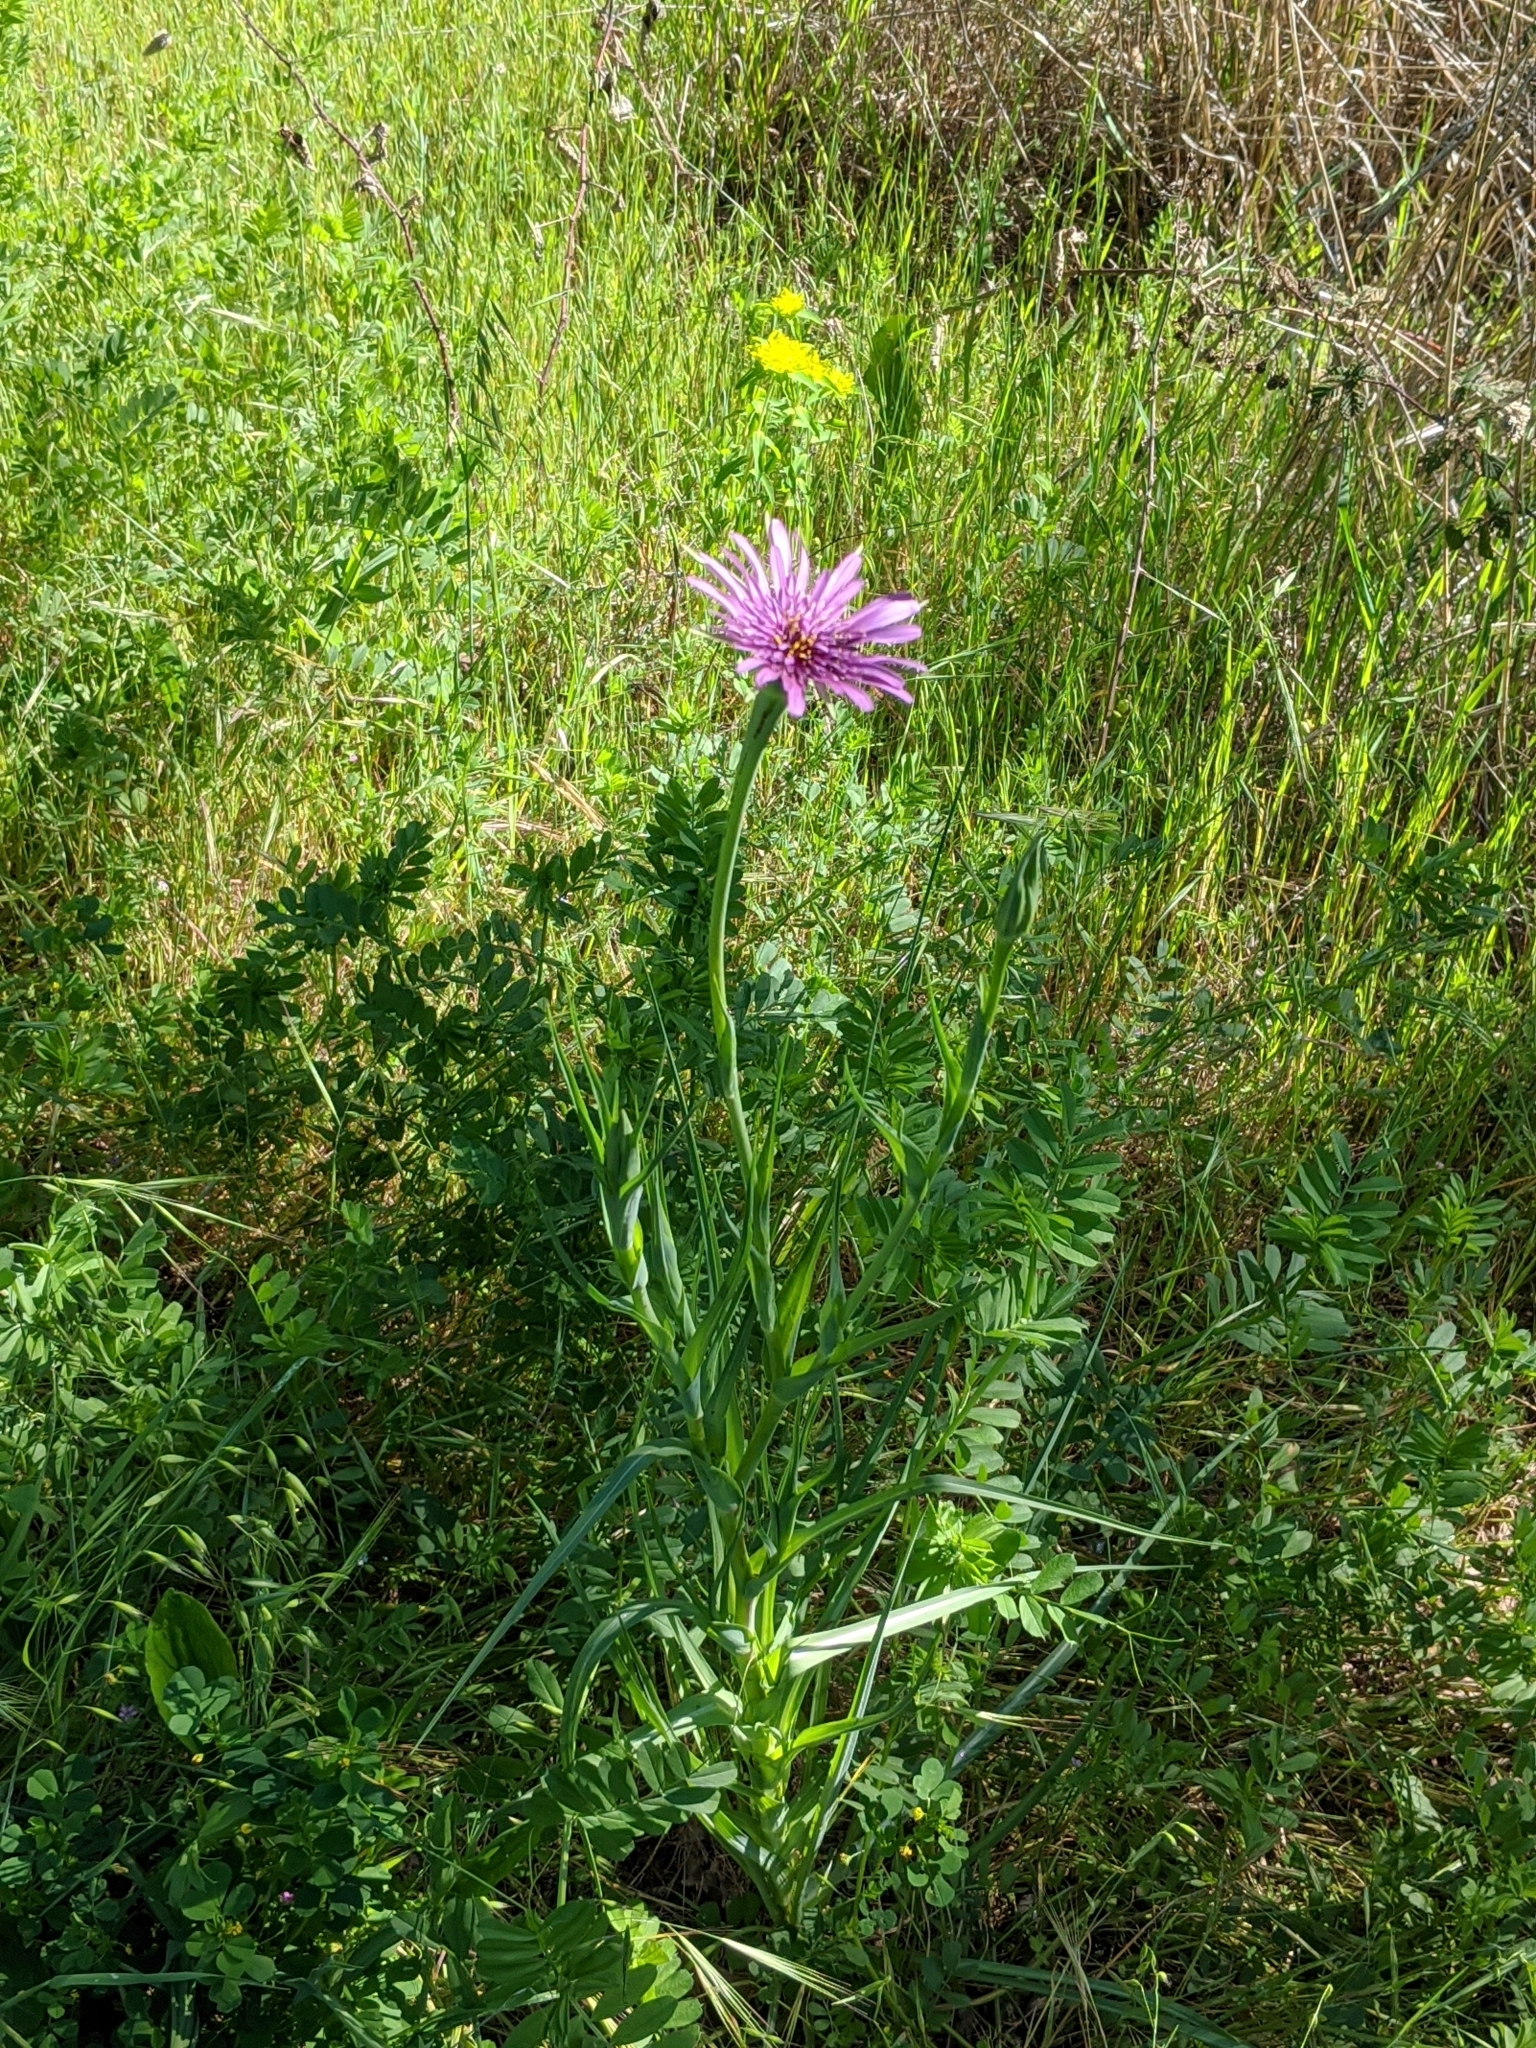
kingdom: Plantae
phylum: Tracheophyta
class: Magnoliopsida
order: Asterales
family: Asteraceae
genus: Tragopogon
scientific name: Tragopogon porrifolius
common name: Salsify
